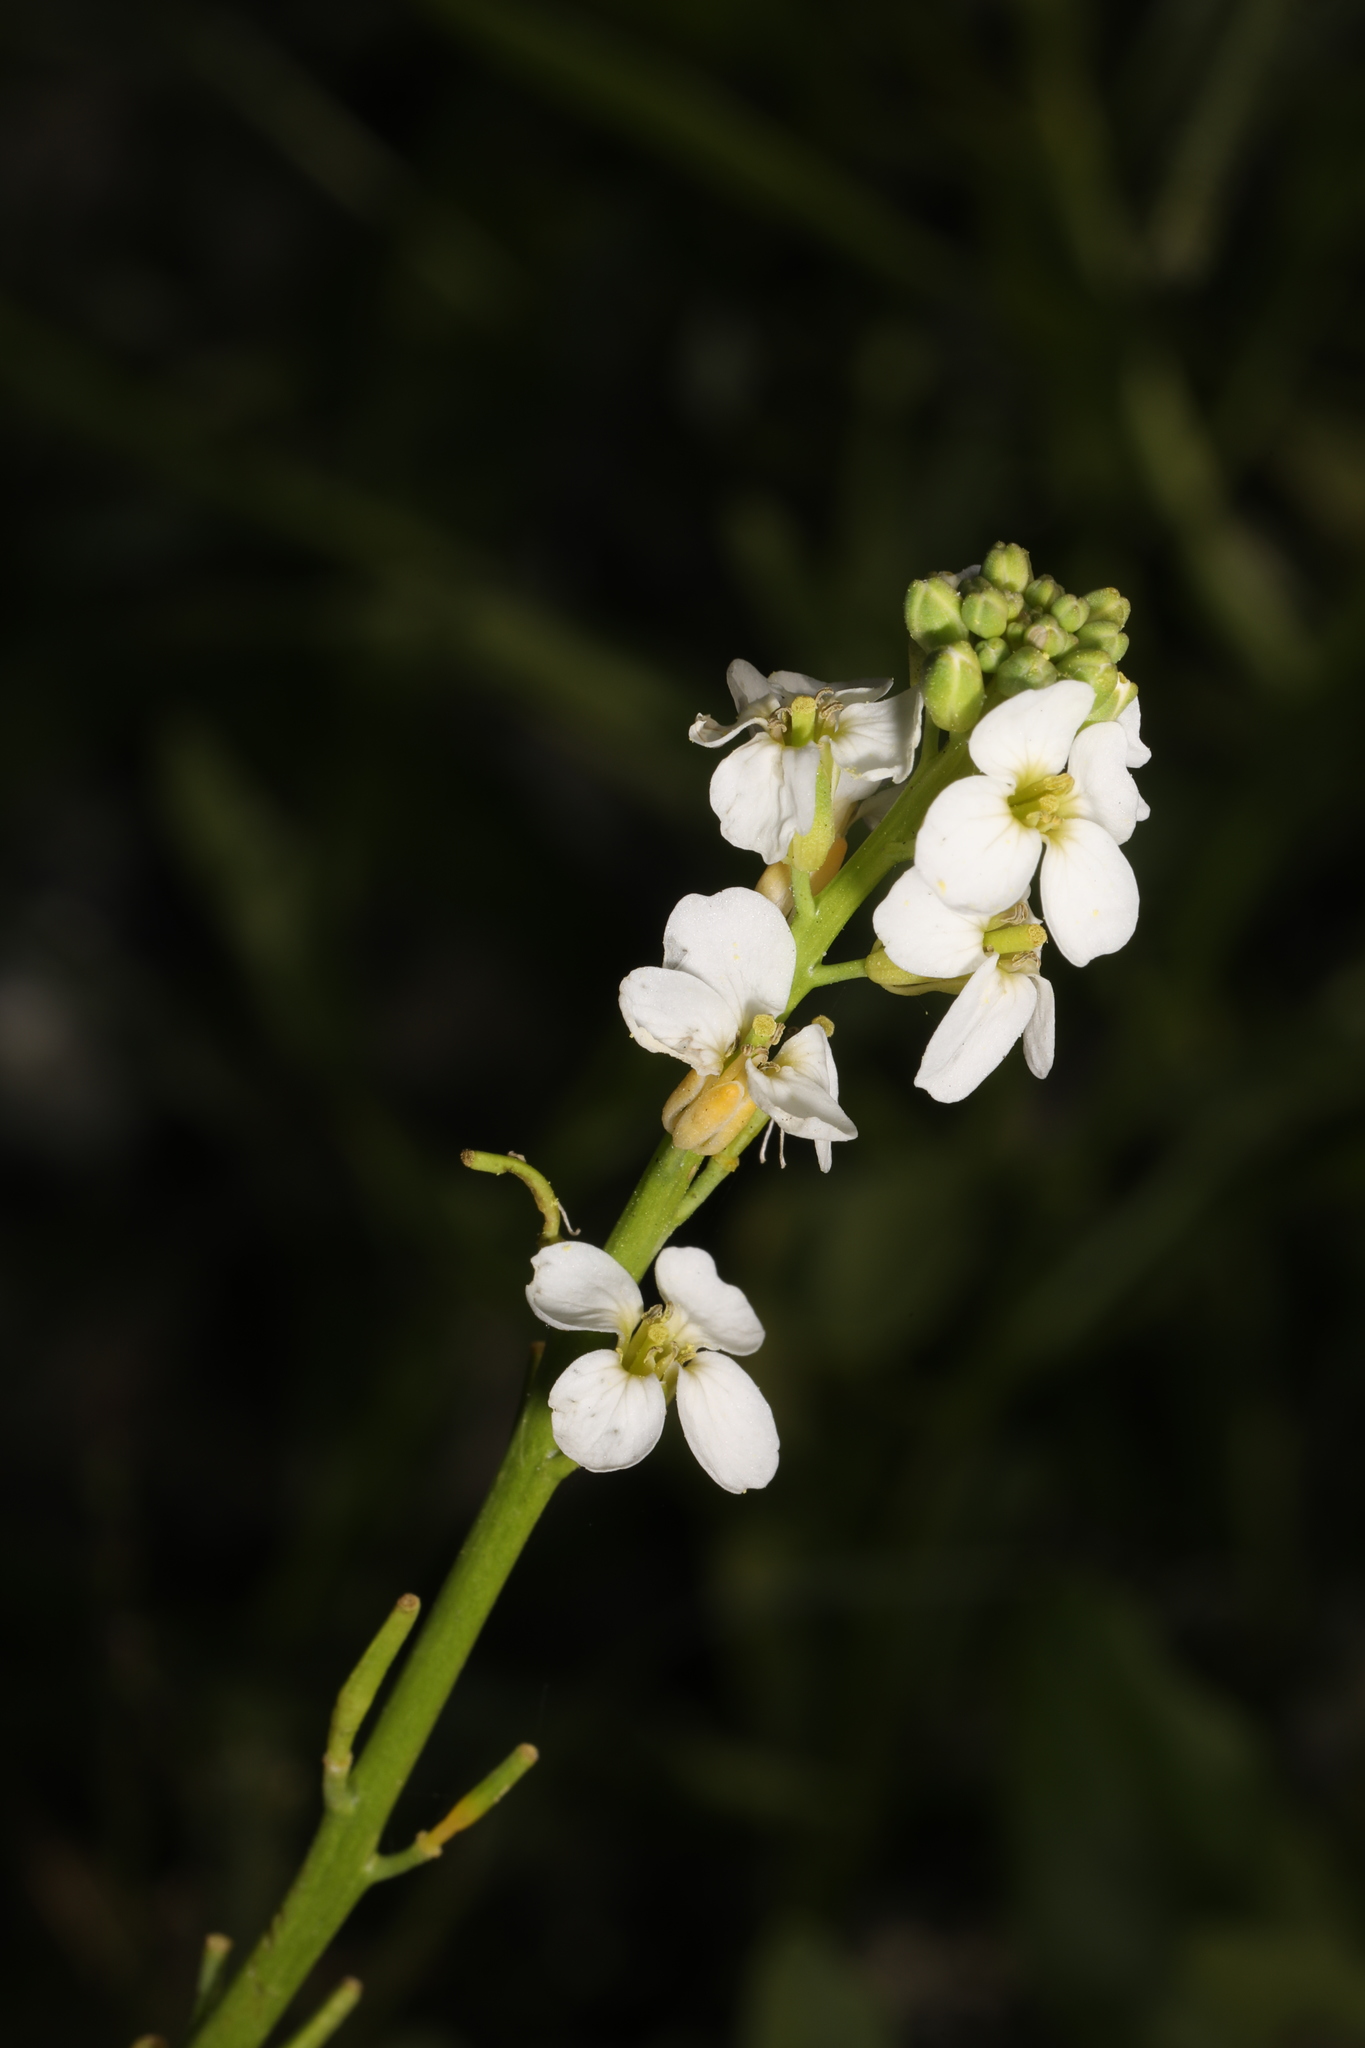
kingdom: Plantae
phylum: Tracheophyta
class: Magnoliopsida
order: Brassicales
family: Brassicaceae
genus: Cakile
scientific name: Cakile lanceolata
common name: Sea rocket
